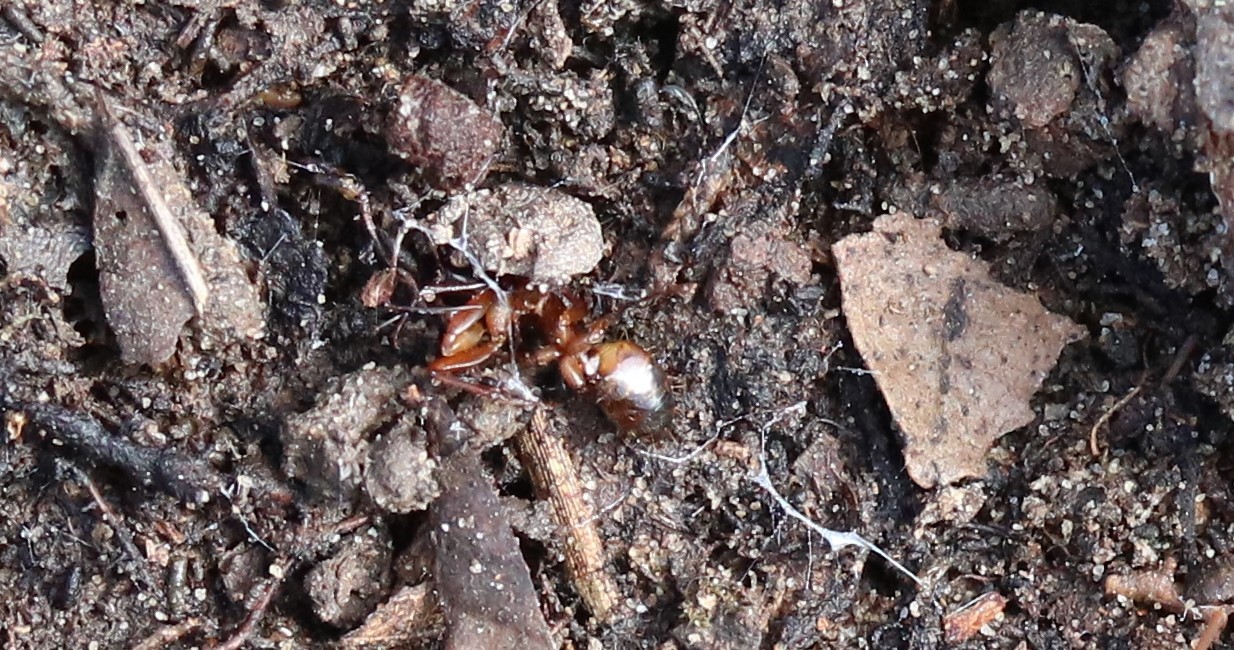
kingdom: Animalia
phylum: Arthropoda
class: Insecta
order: Hymenoptera
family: Formicidae
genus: Solenopsis
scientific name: Solenopsis invicta
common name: Red imported fire ant
